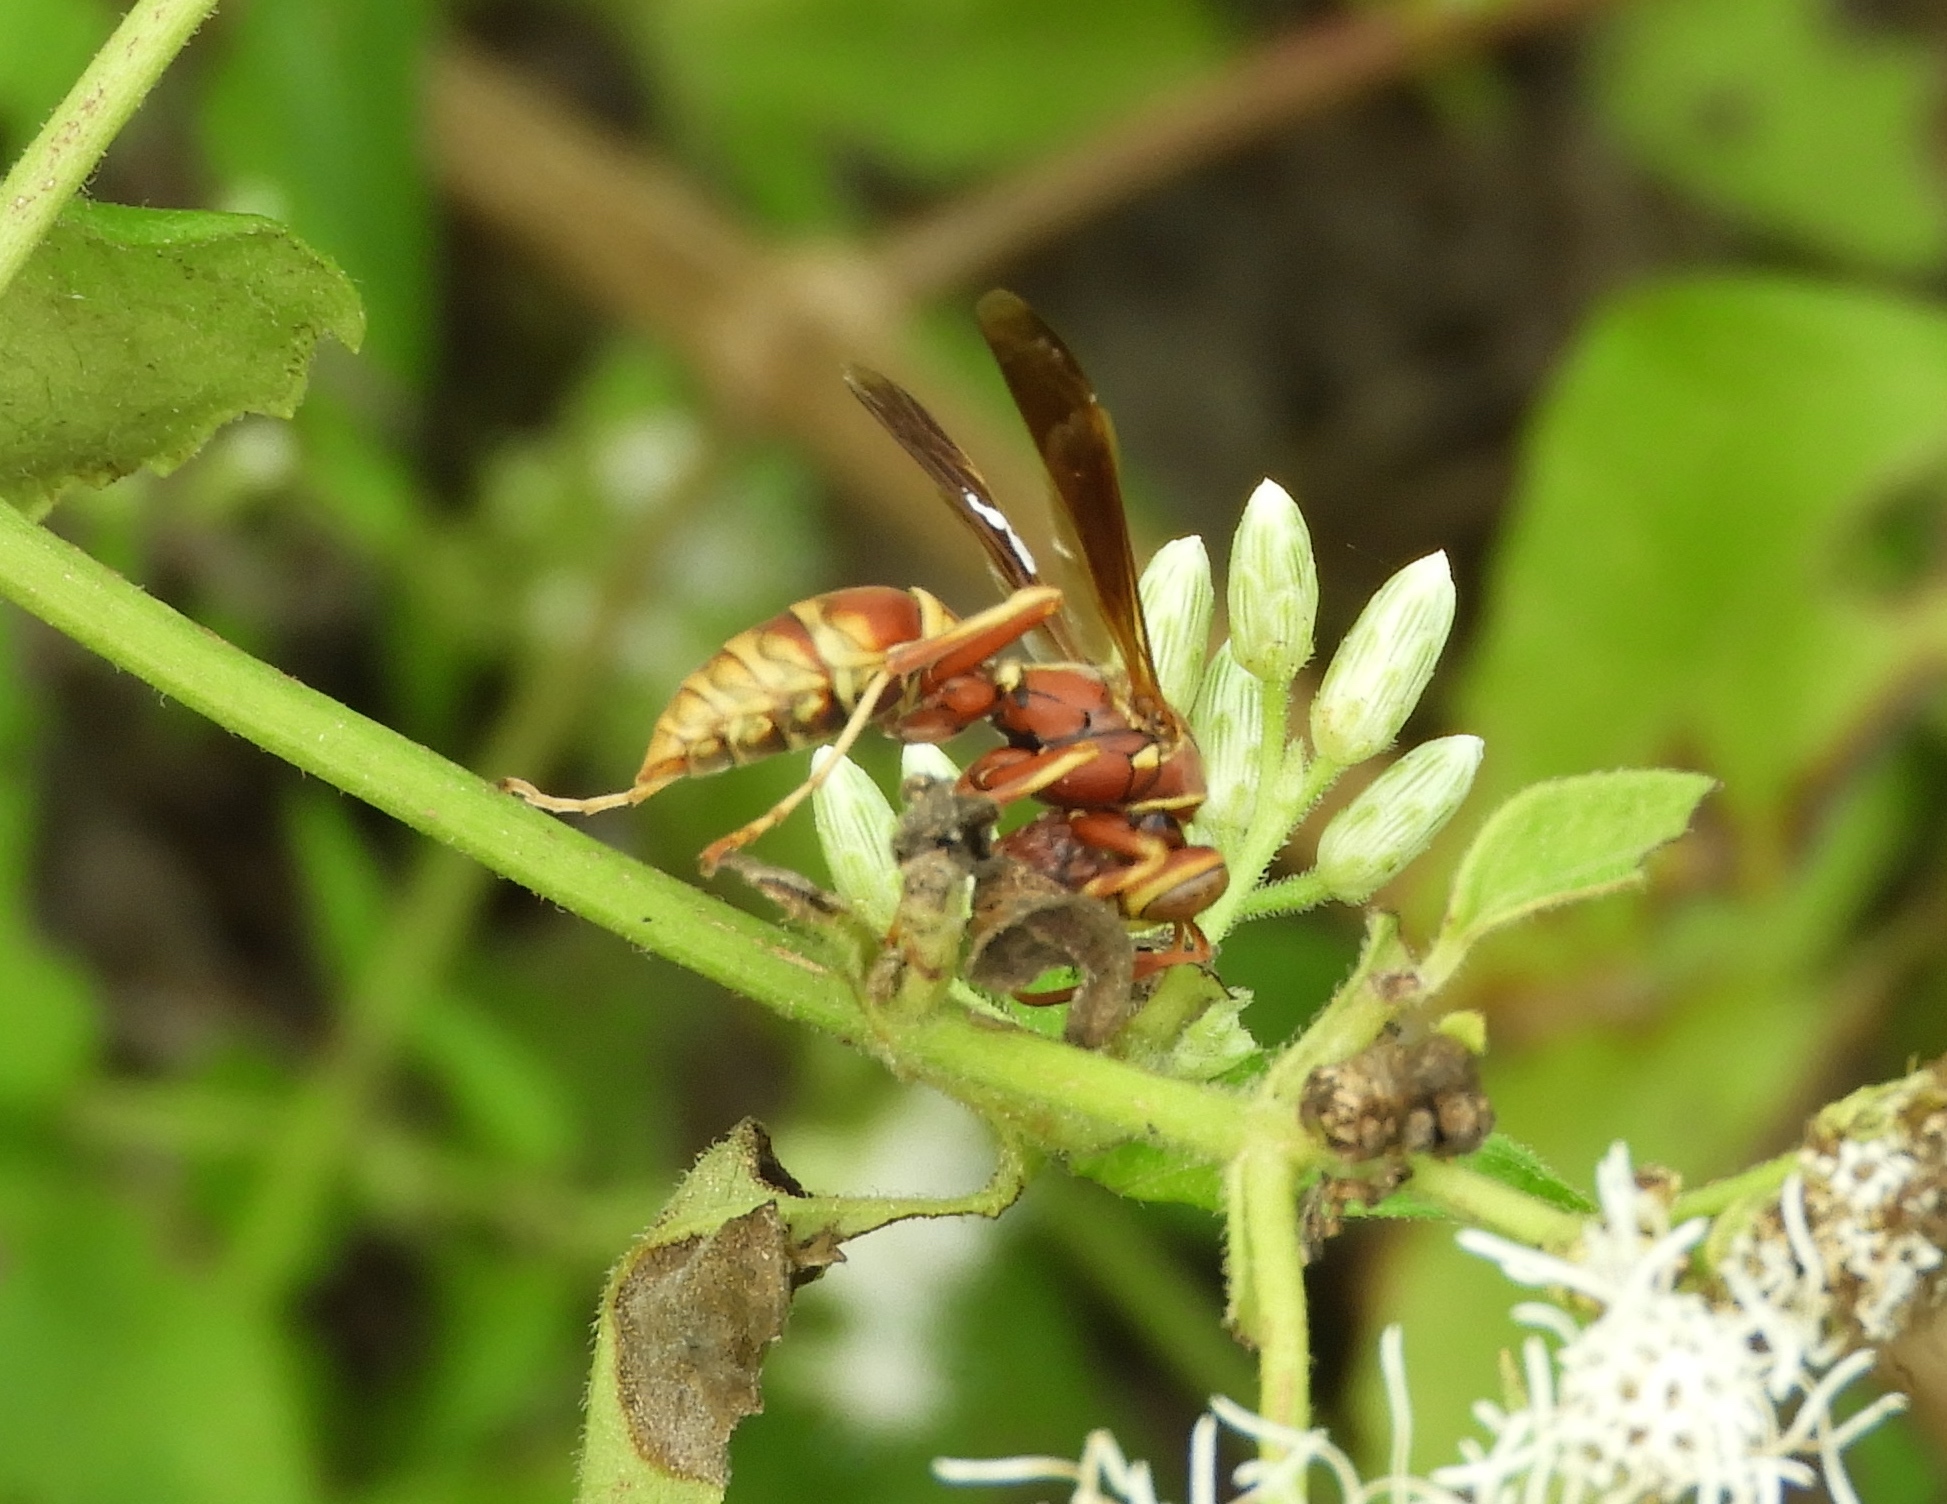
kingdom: Animalia
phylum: Arthropoda
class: Insecta
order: Hymenoptera
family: Eumenidae
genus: Polistes
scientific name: Polistes dorsalis
